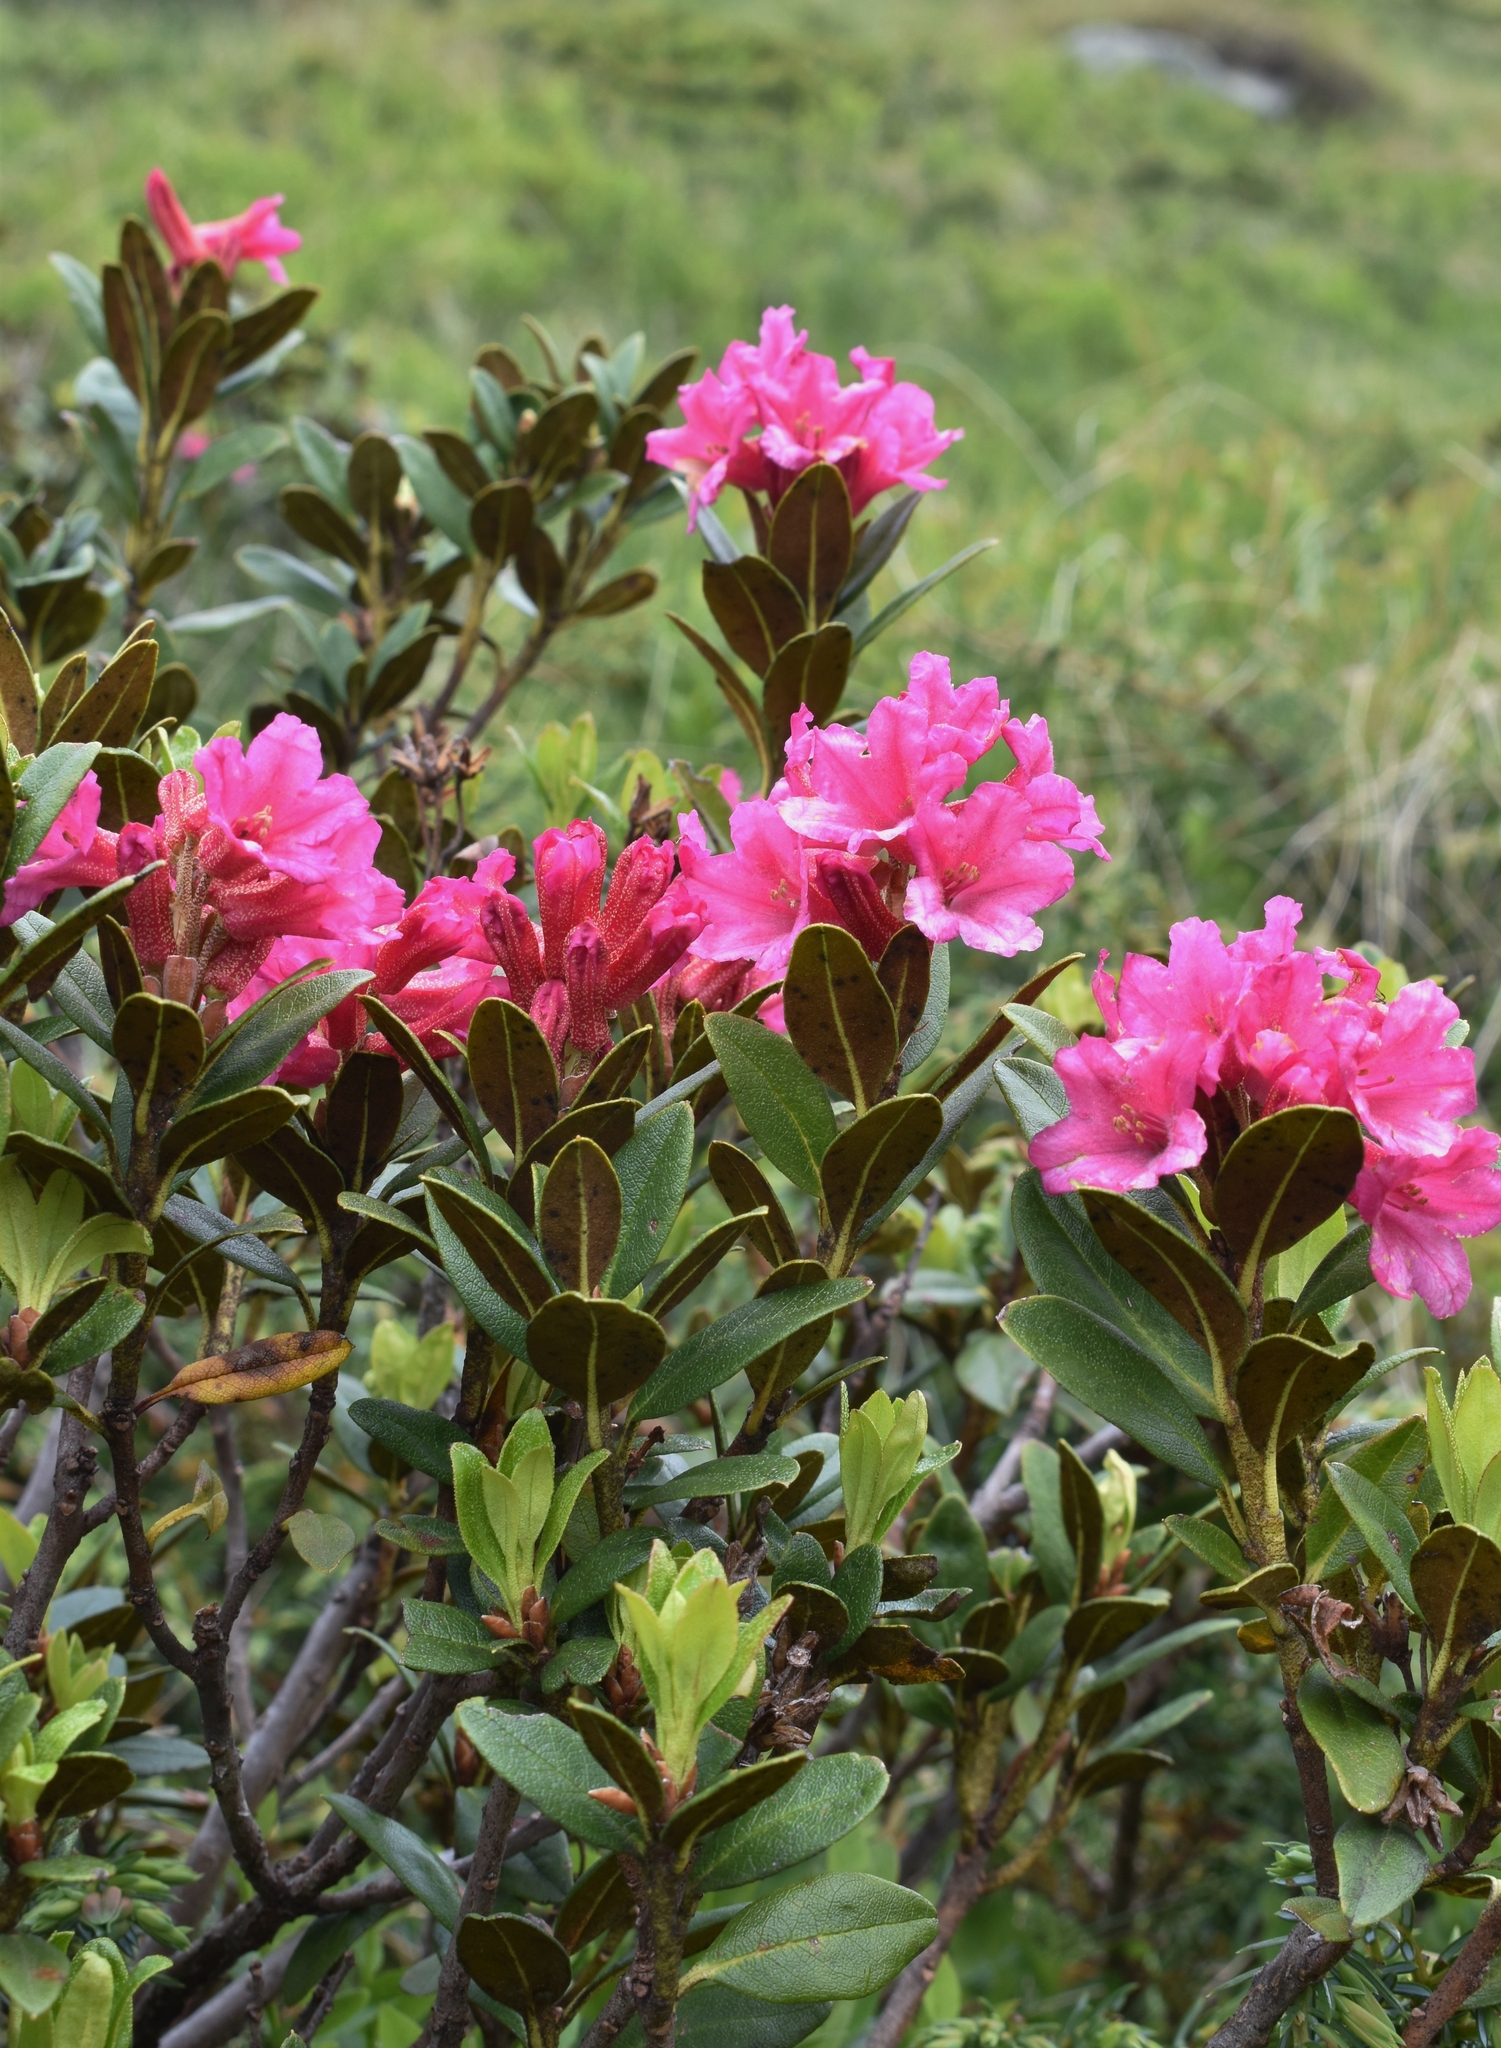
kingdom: Plantae
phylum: Tracheophyta
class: Magnoliopsida
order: Ericales
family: Ericaceae
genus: Rhododendron
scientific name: Rhododendron ferrugineum
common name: Alpenrose
